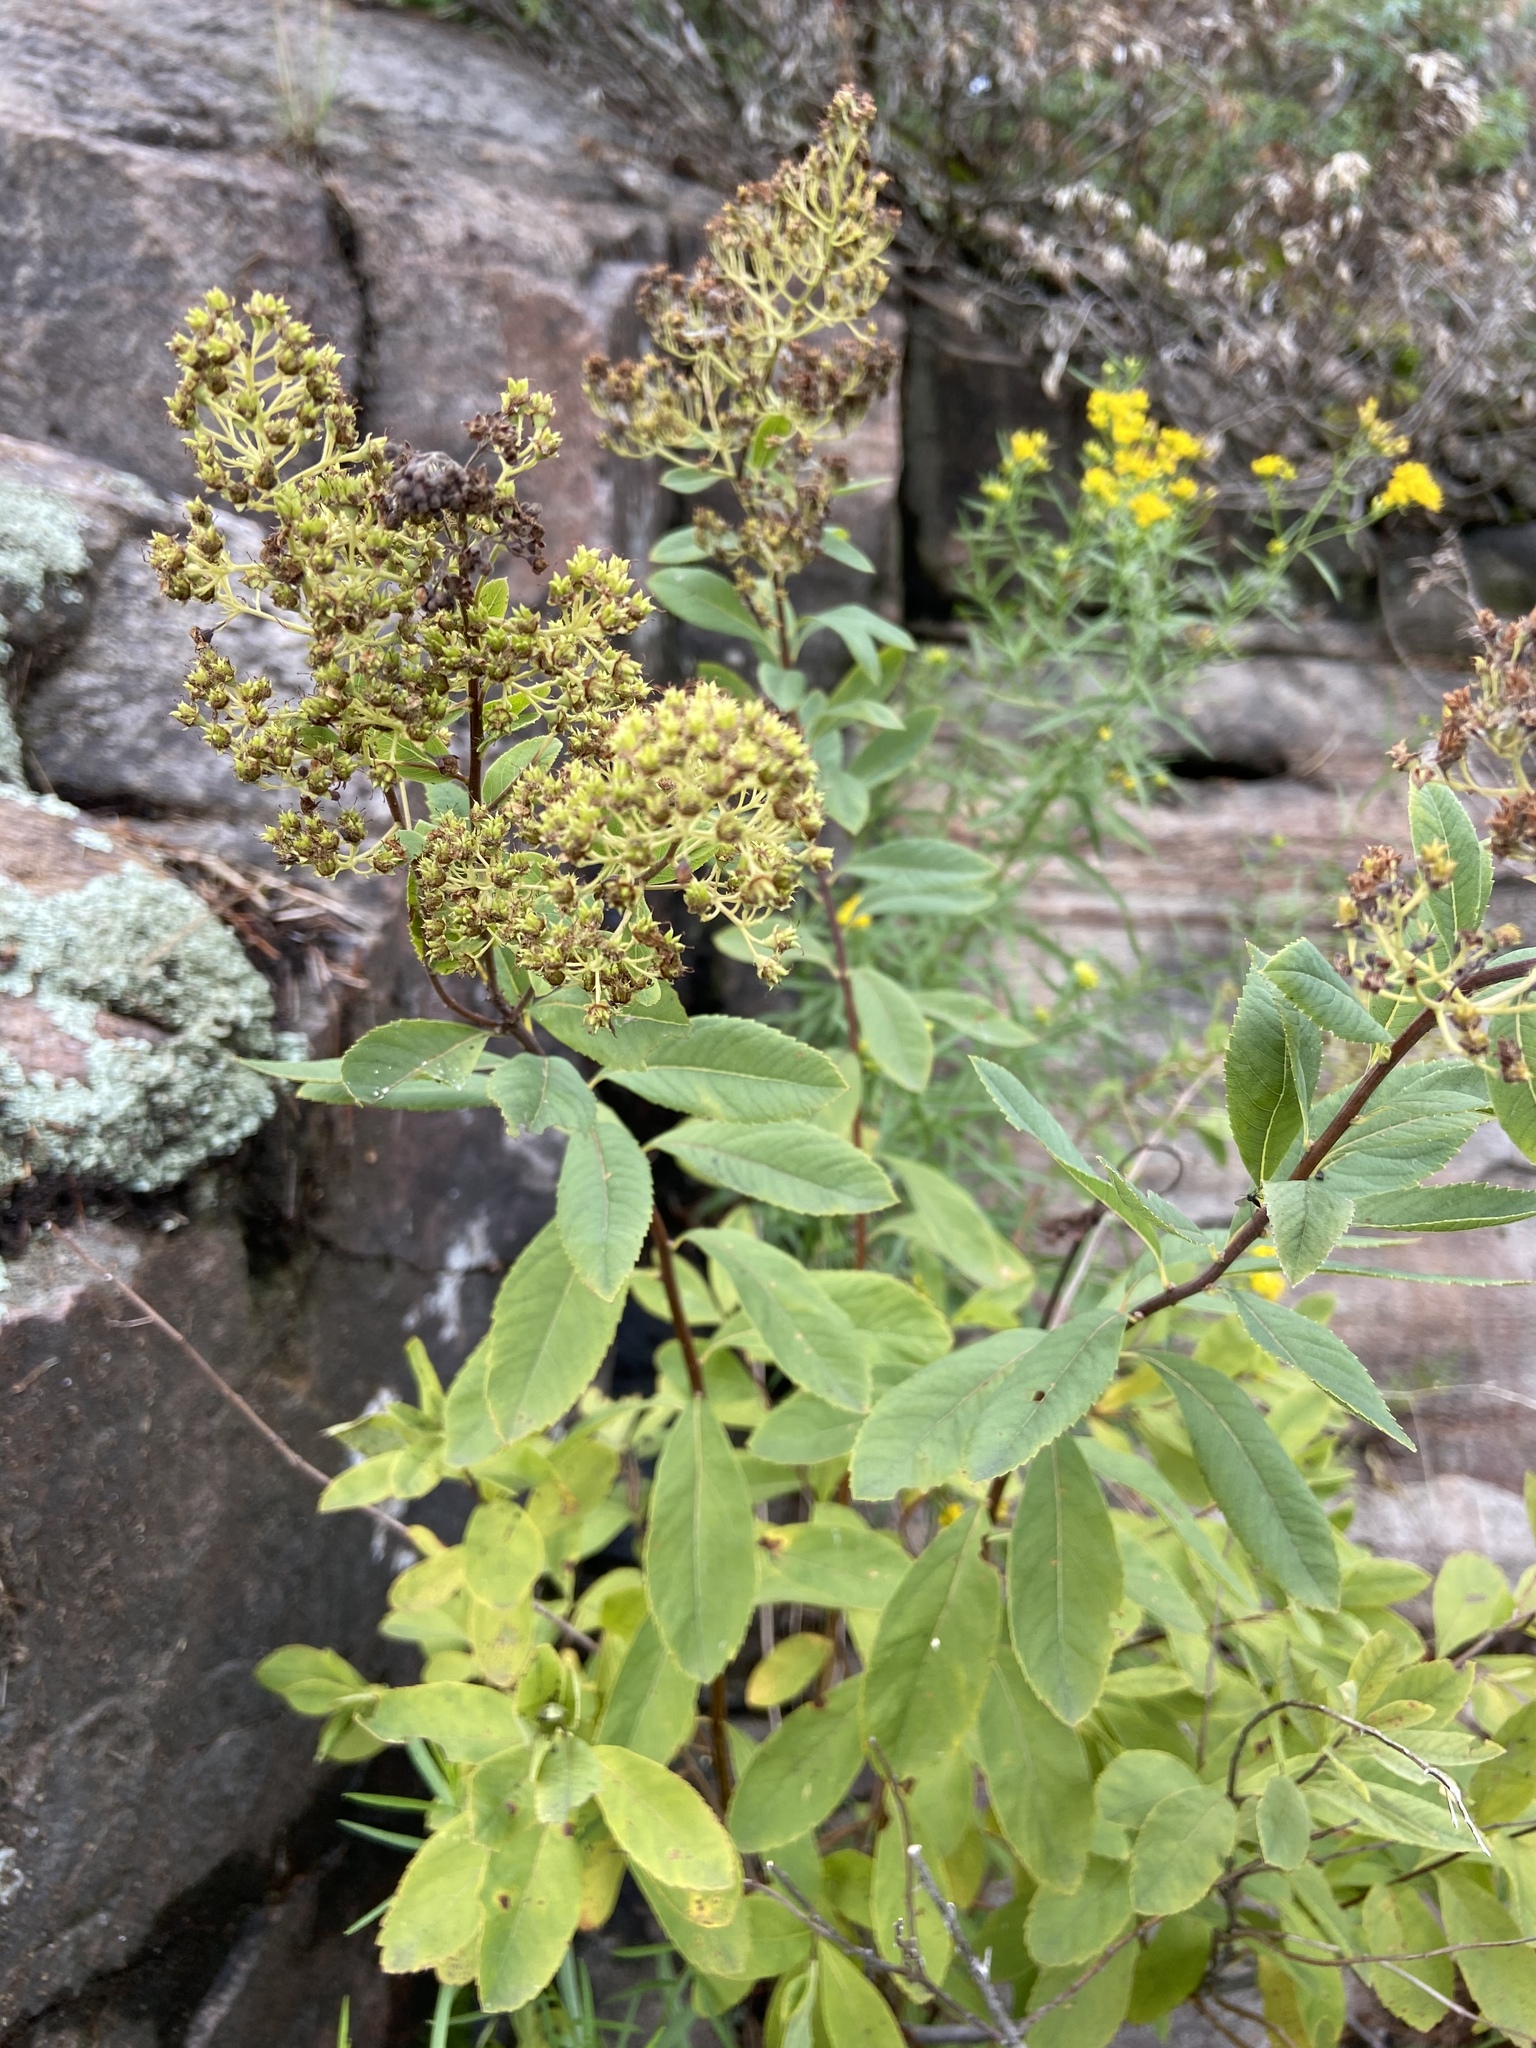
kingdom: Plantae
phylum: Tracheophyta
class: Magnoliopsida
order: Rosales
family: Rosaceae
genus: Spiraea
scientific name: Spiraea alba
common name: Pale bridewort
